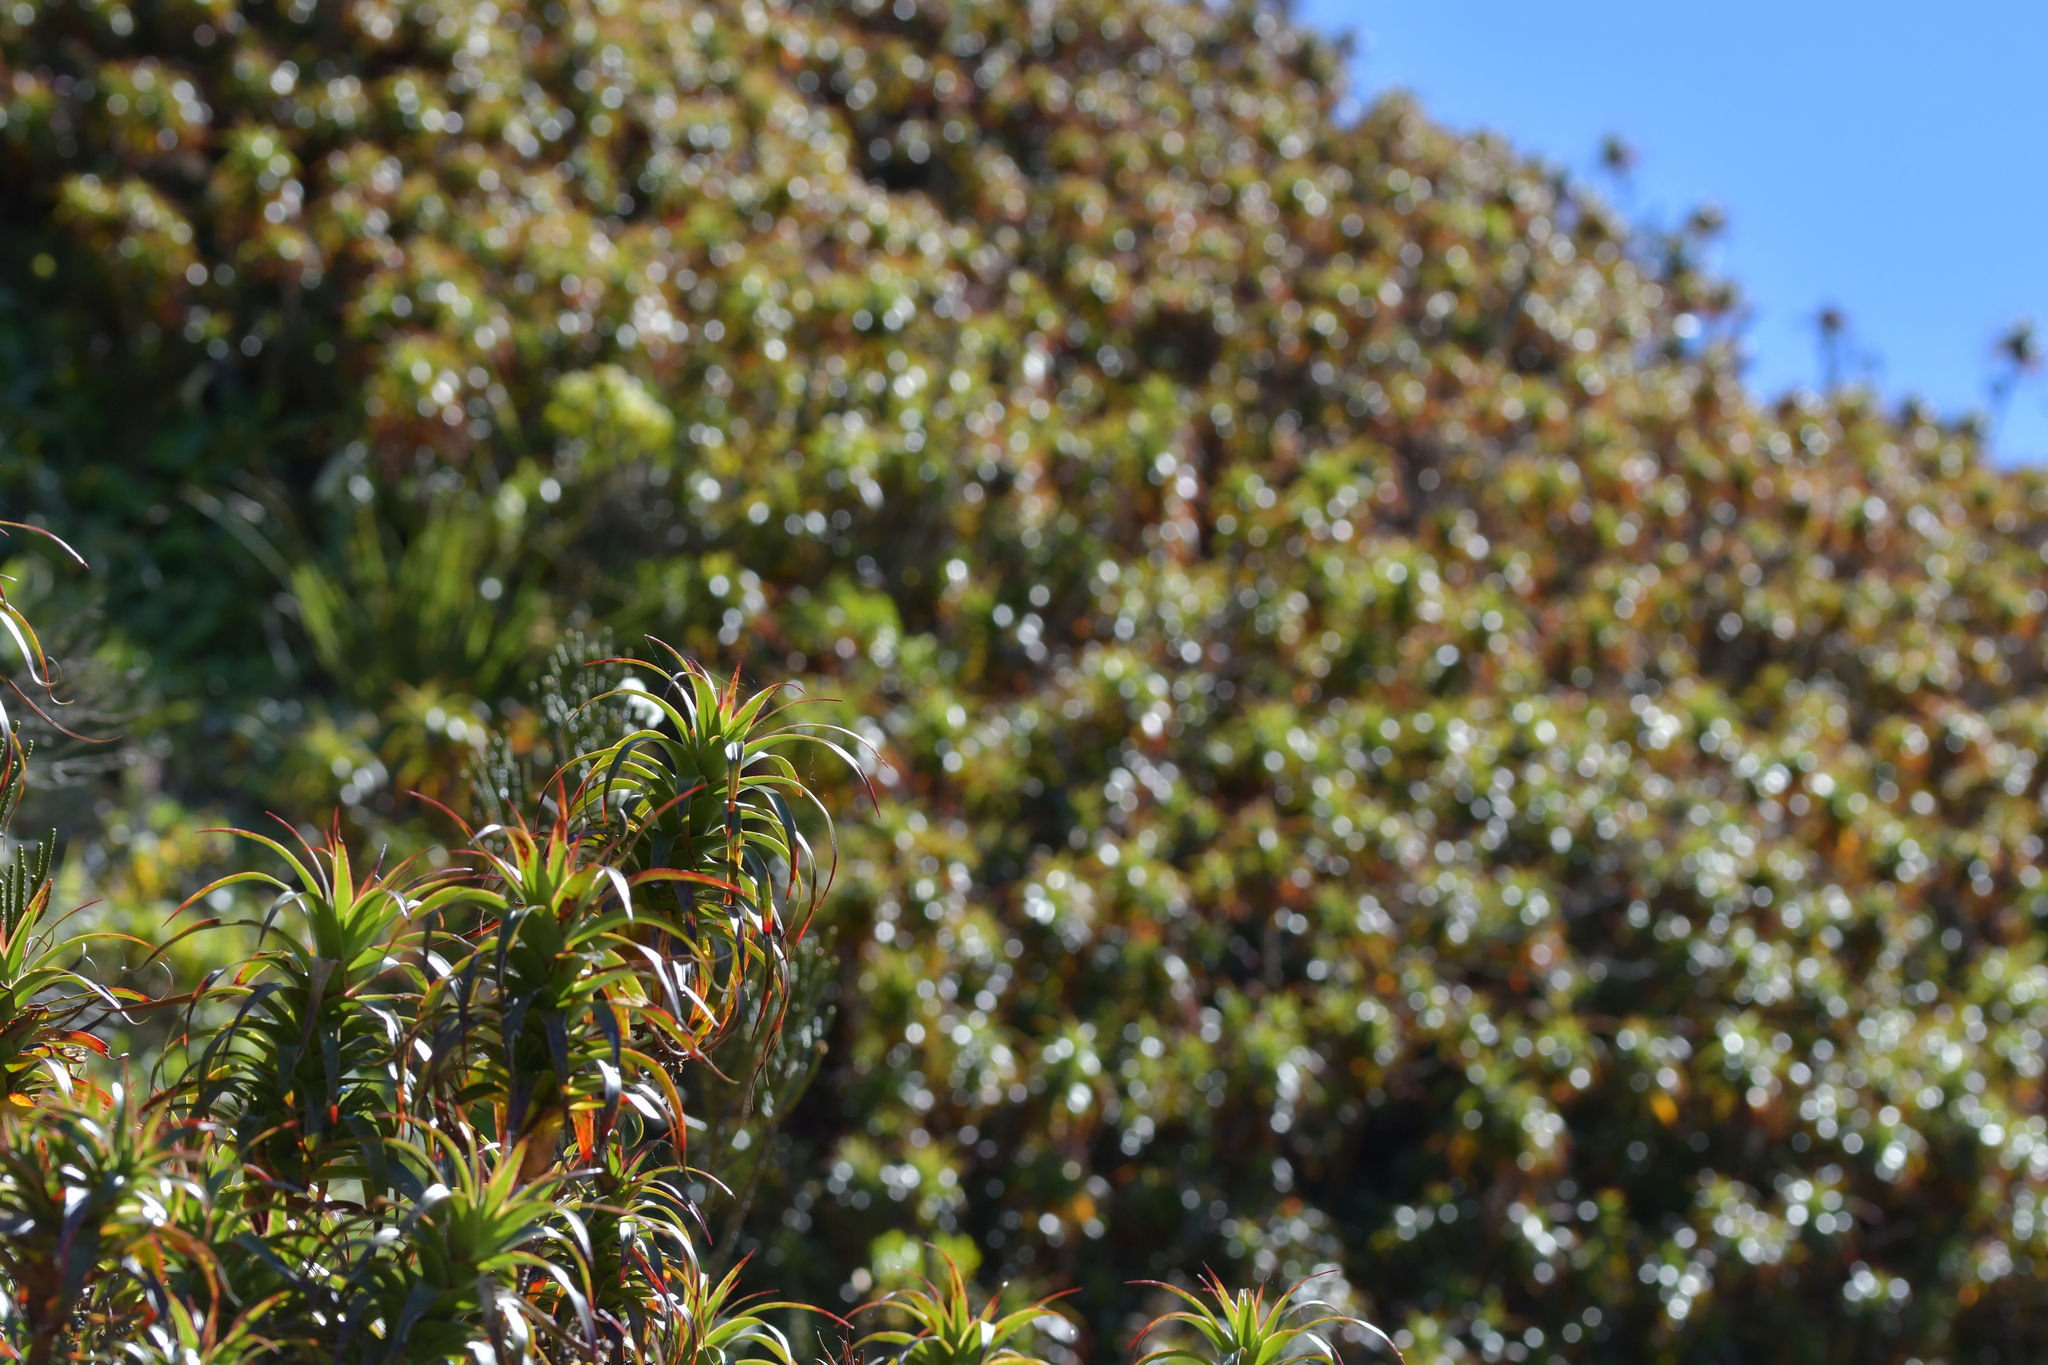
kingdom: Plantae
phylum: Tracheophyta
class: Magnoliopsida
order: Ericales
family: Ericaceae
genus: Dracophyllum
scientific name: Dracophyllum menziesii
